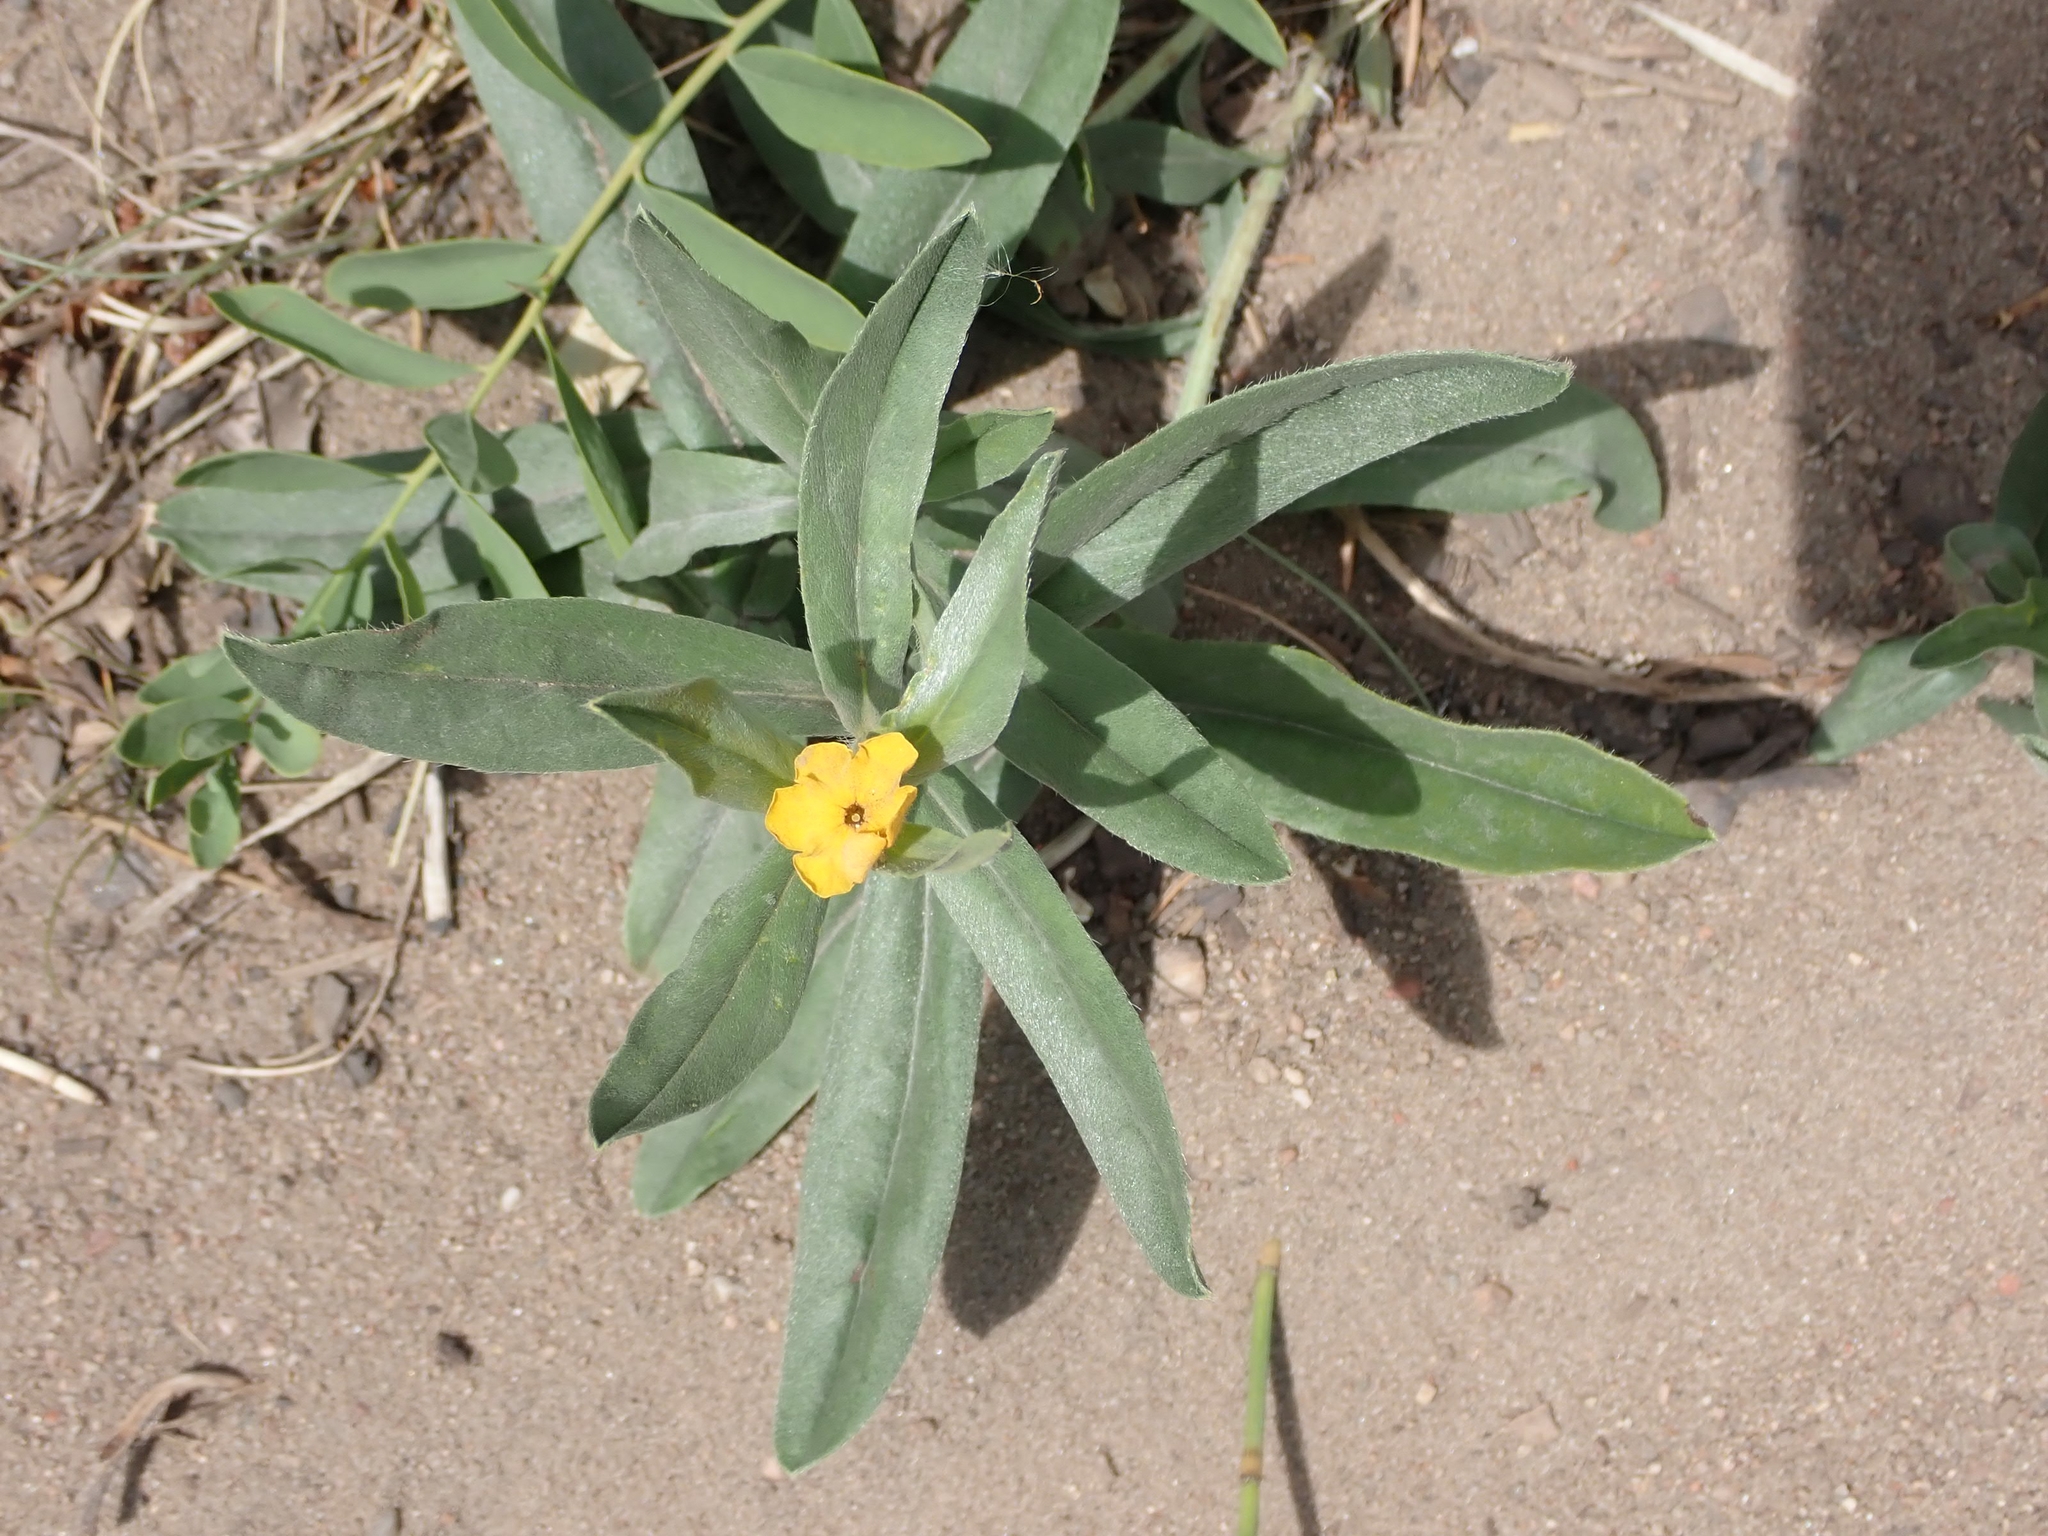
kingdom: Plantae
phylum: Tracheophyta
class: Magnoliopsida
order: Boraginales
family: Boraginaceae
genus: Lithospermum
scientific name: Lithospermum canescens
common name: Hoary puccoon
